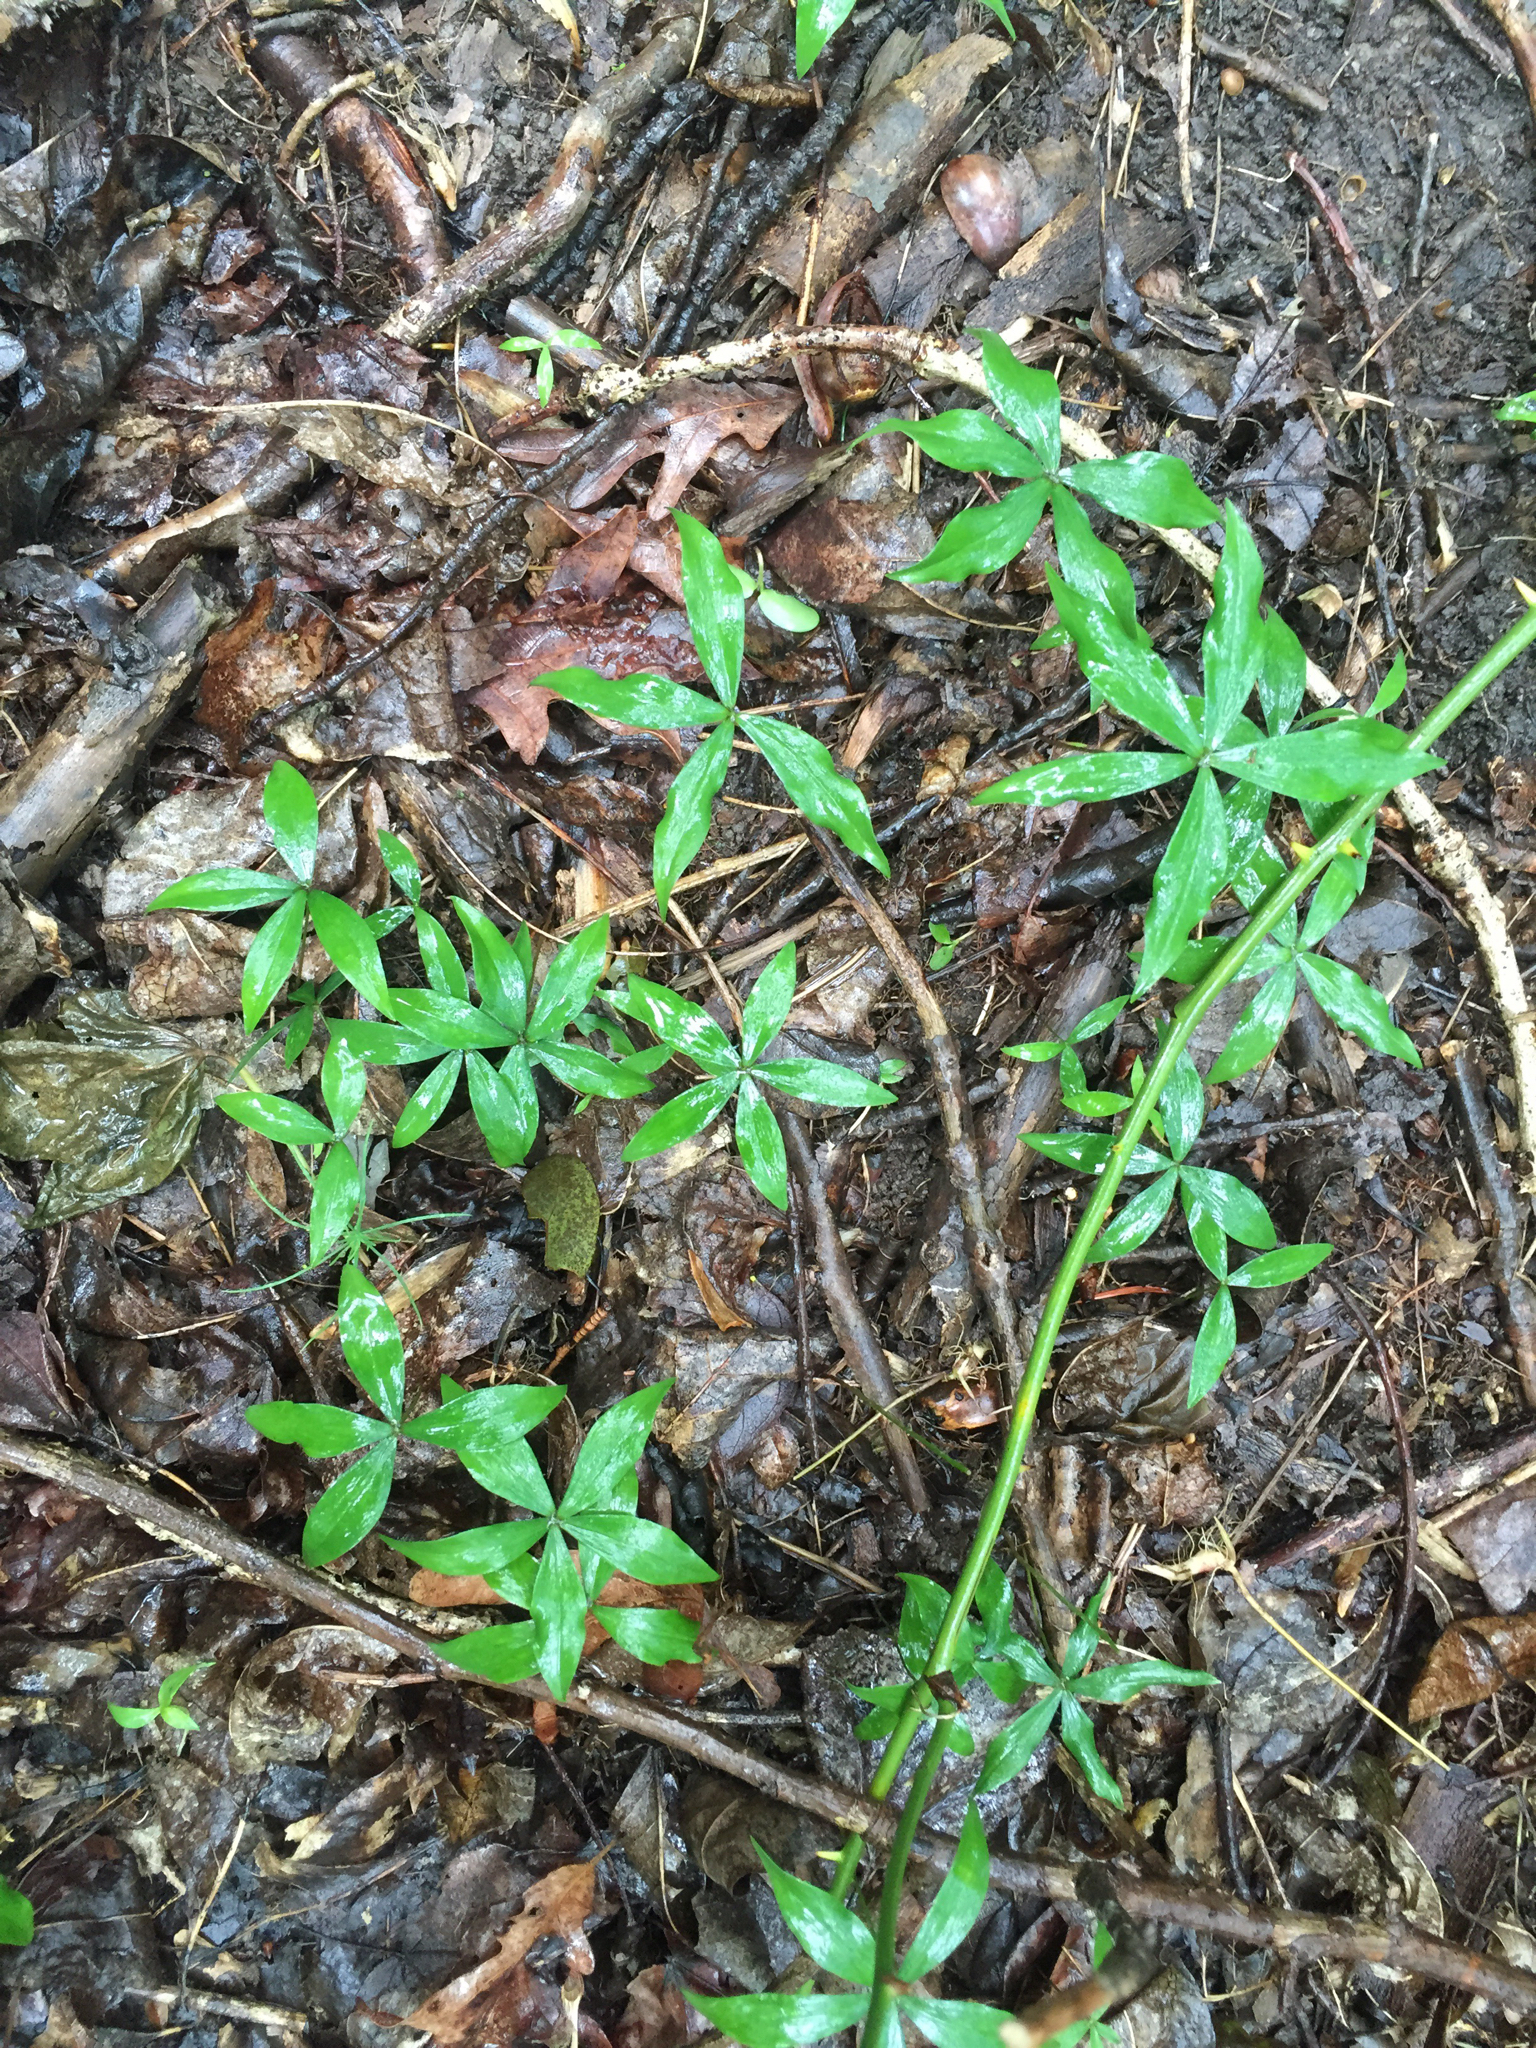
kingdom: Plantae
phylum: Tracheophyta
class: Liliopsida
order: Liliales
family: Liliaceae
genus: Medeola
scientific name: Medeola virginiana
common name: Indian cucumber-root
